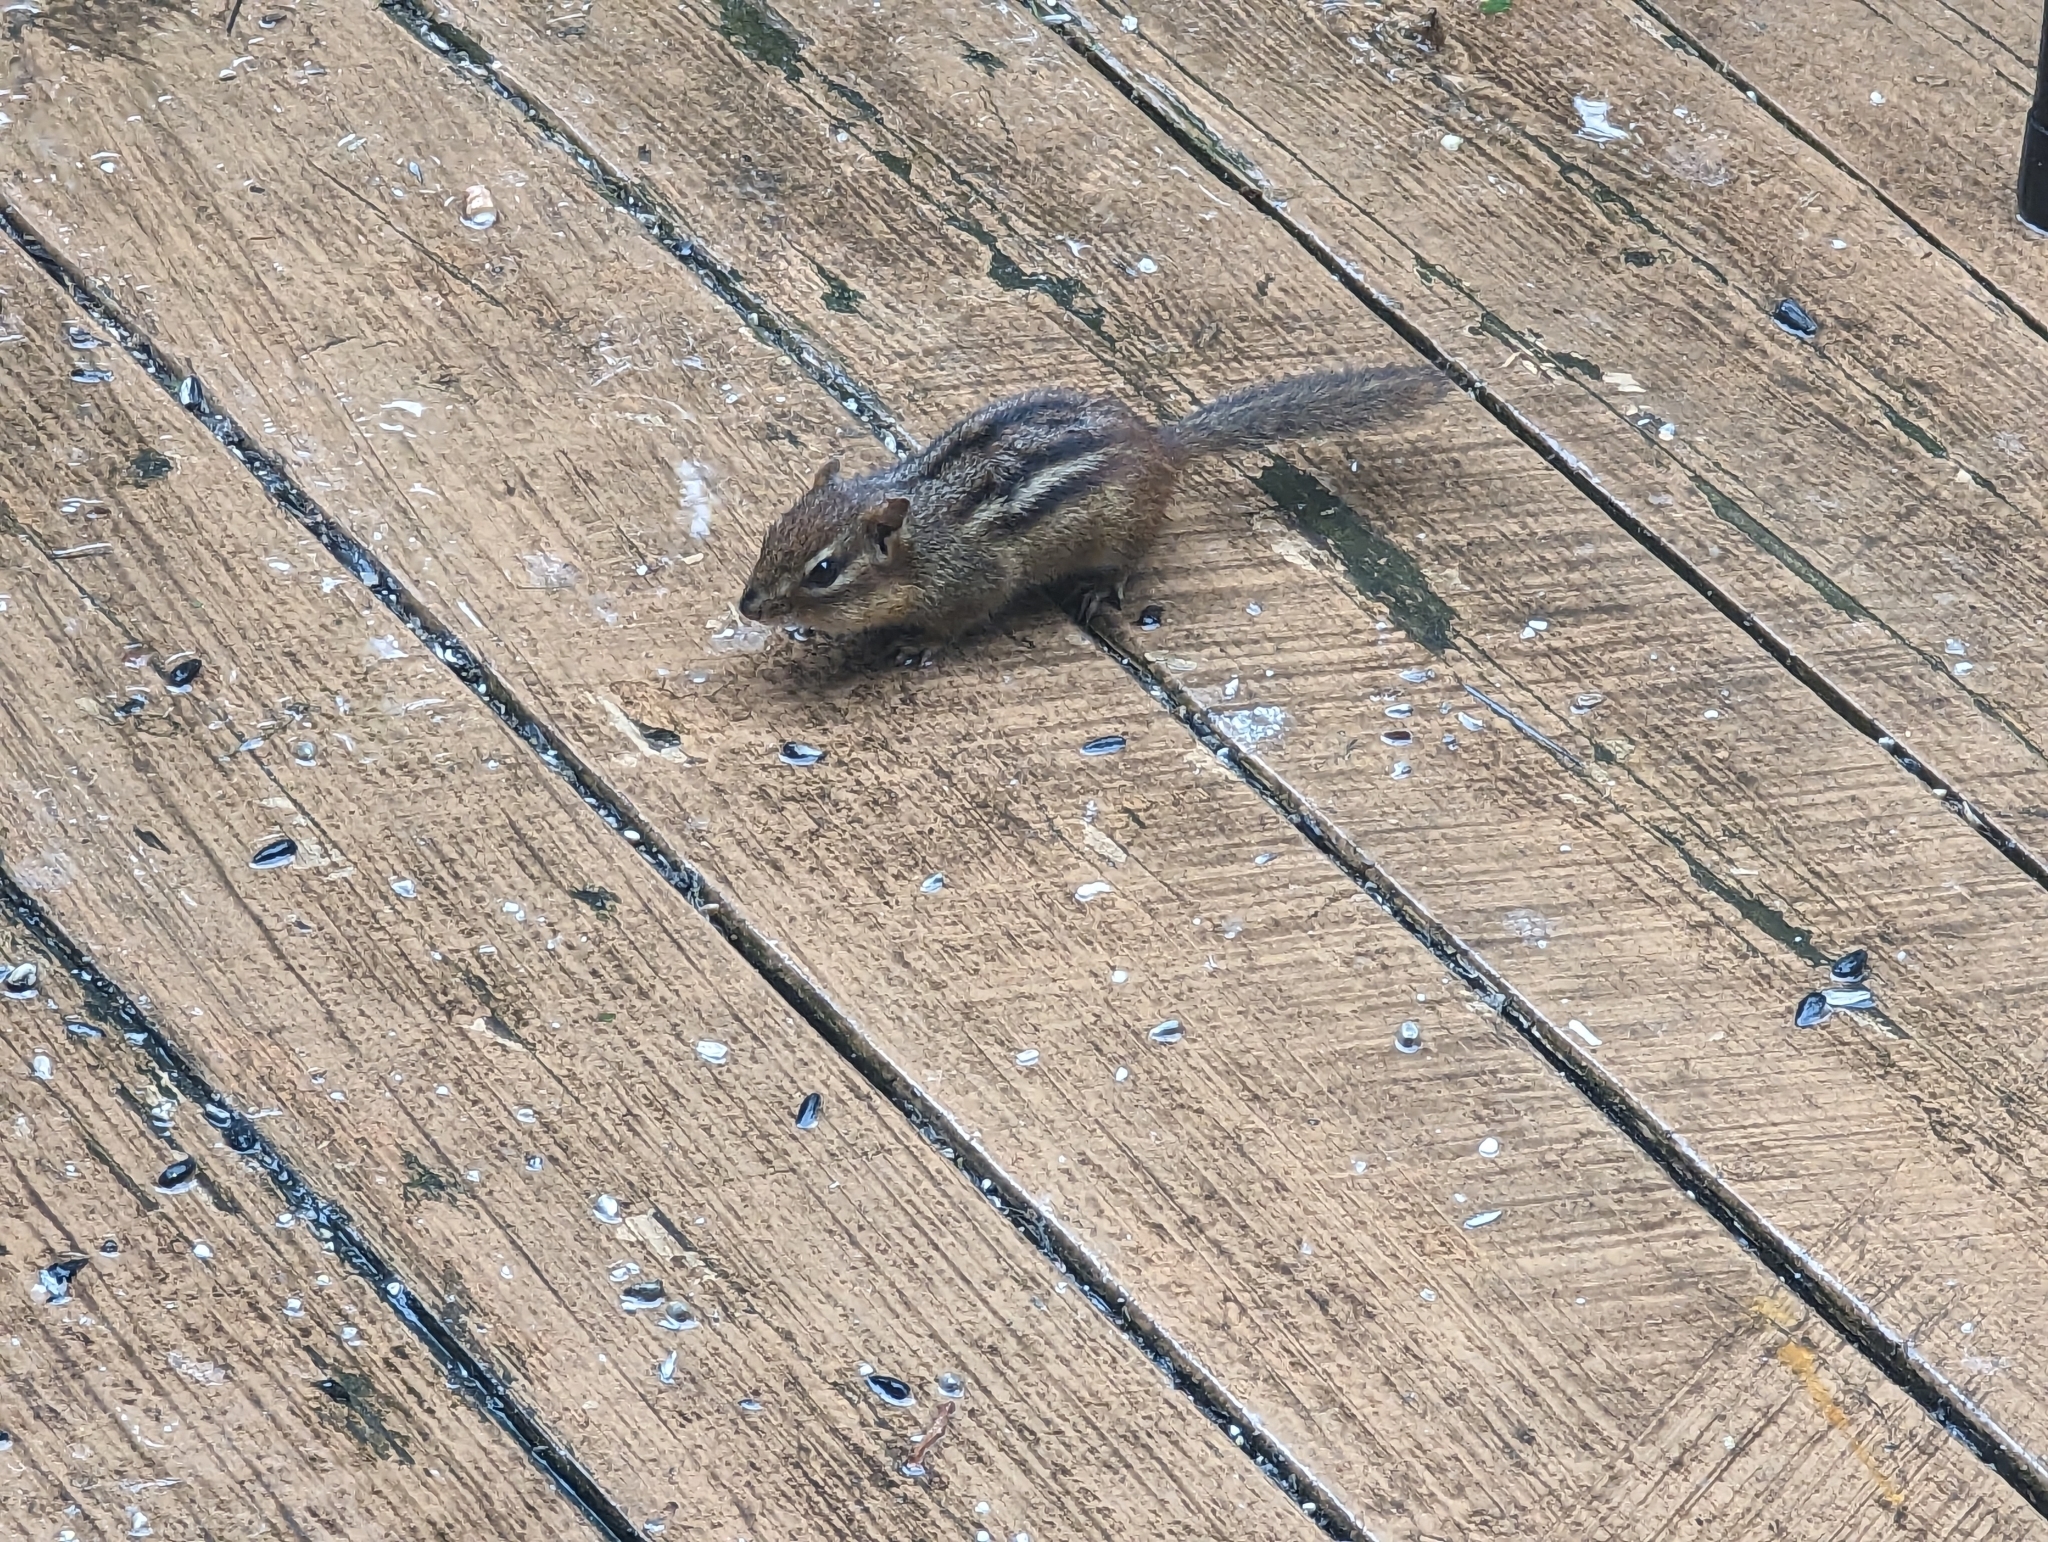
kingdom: Animalia
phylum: Chordata
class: Mammalia
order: Rodentia
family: Sciuridae
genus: Tamias
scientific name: Tamias striatus
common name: Eastern chipmunk
